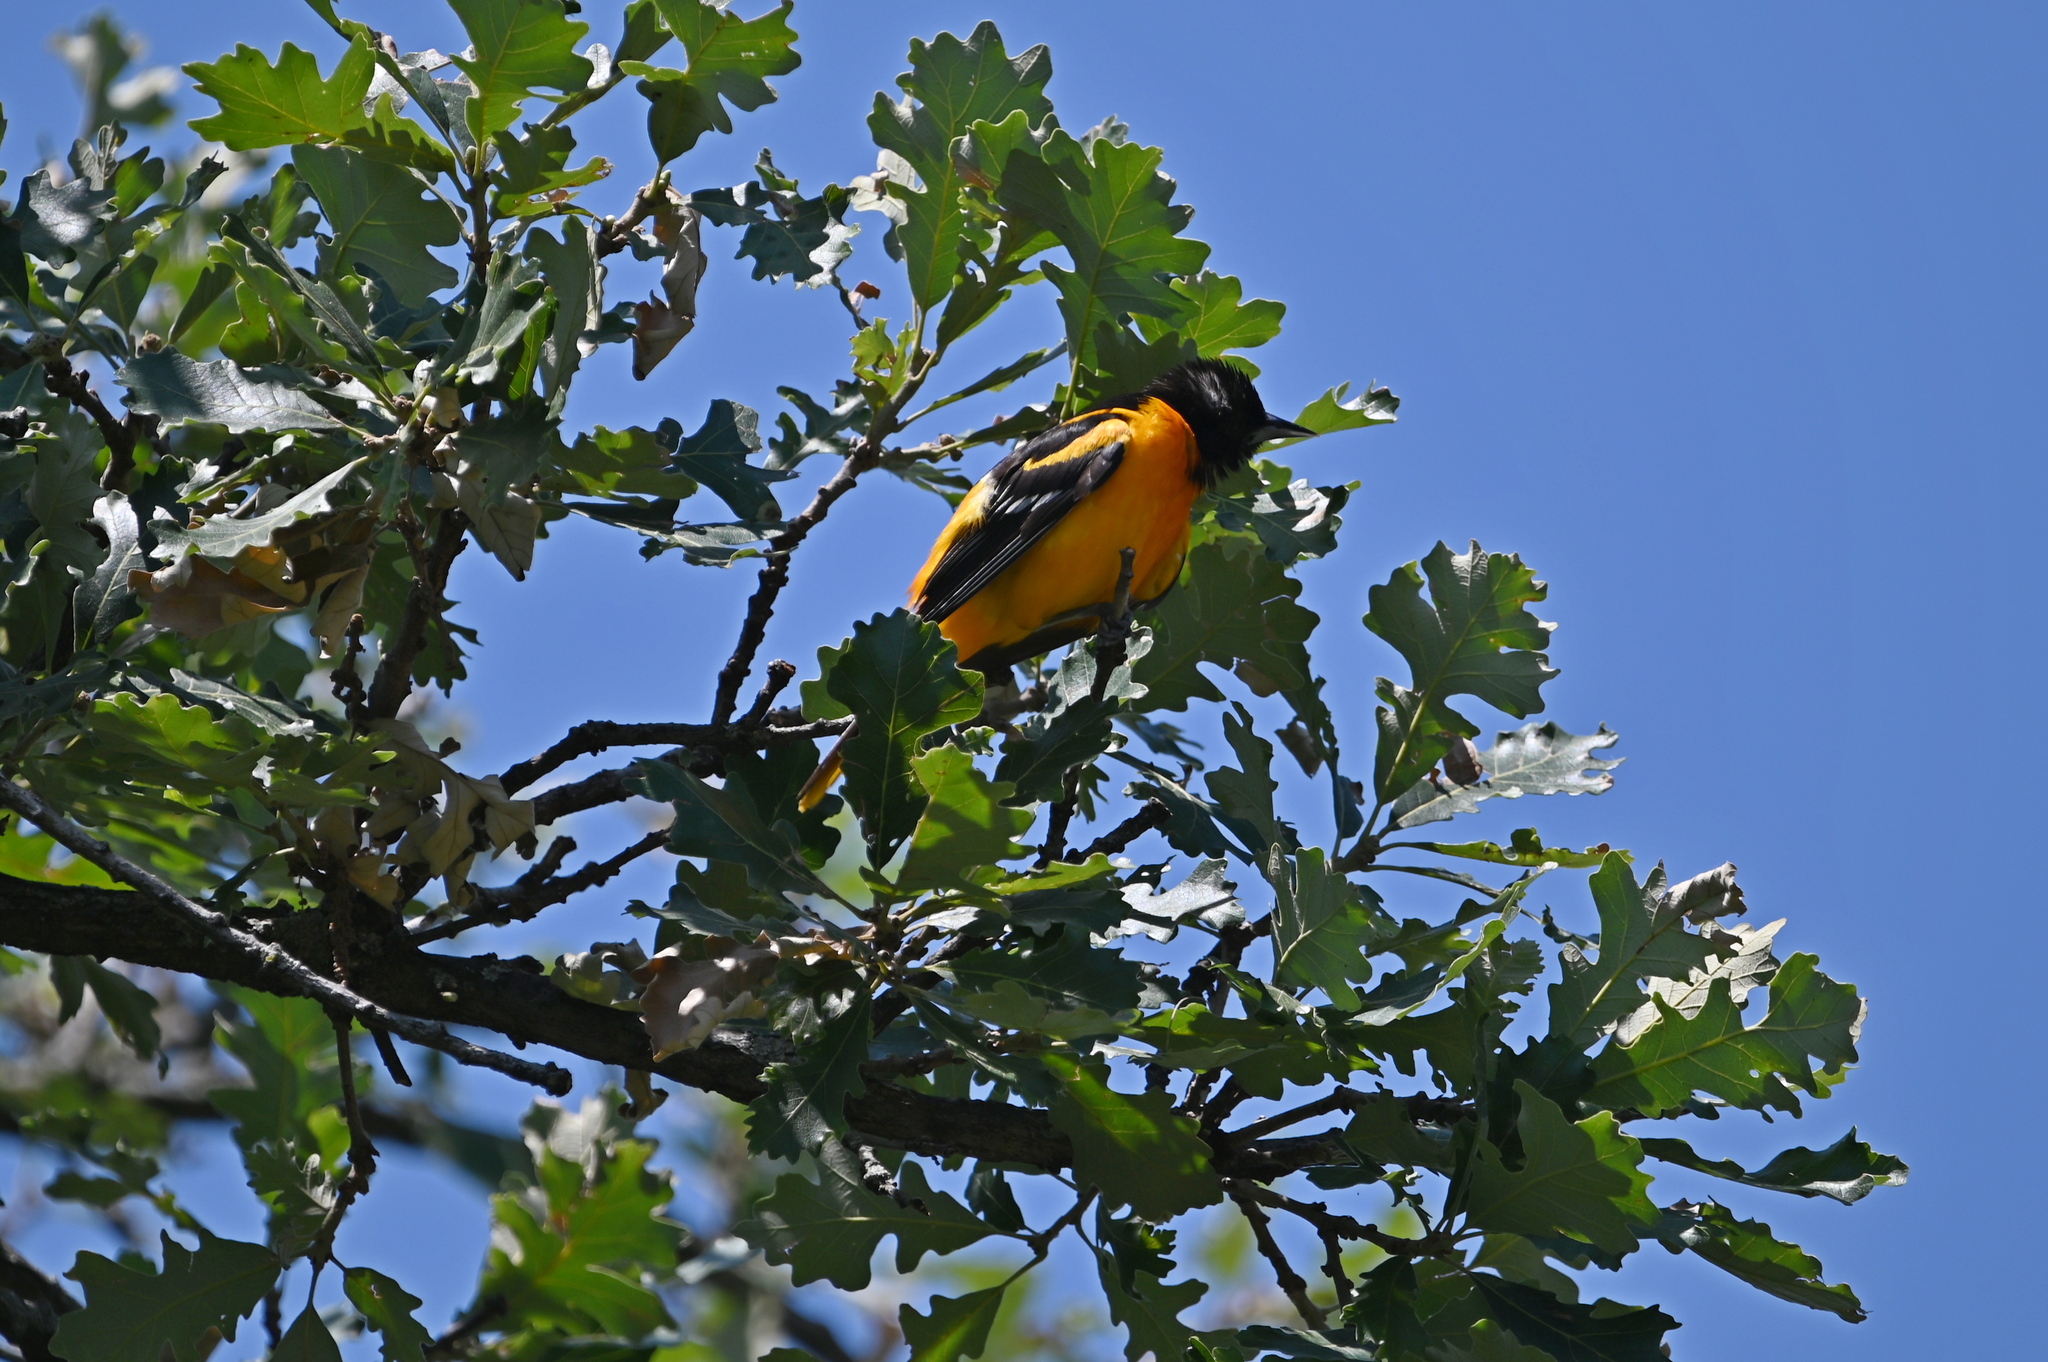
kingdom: Animalia
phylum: Chordata
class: Aves
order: Passeriformes
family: Icteridae
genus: Icterus
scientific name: Icterus galbula
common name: Baltimore oriole
